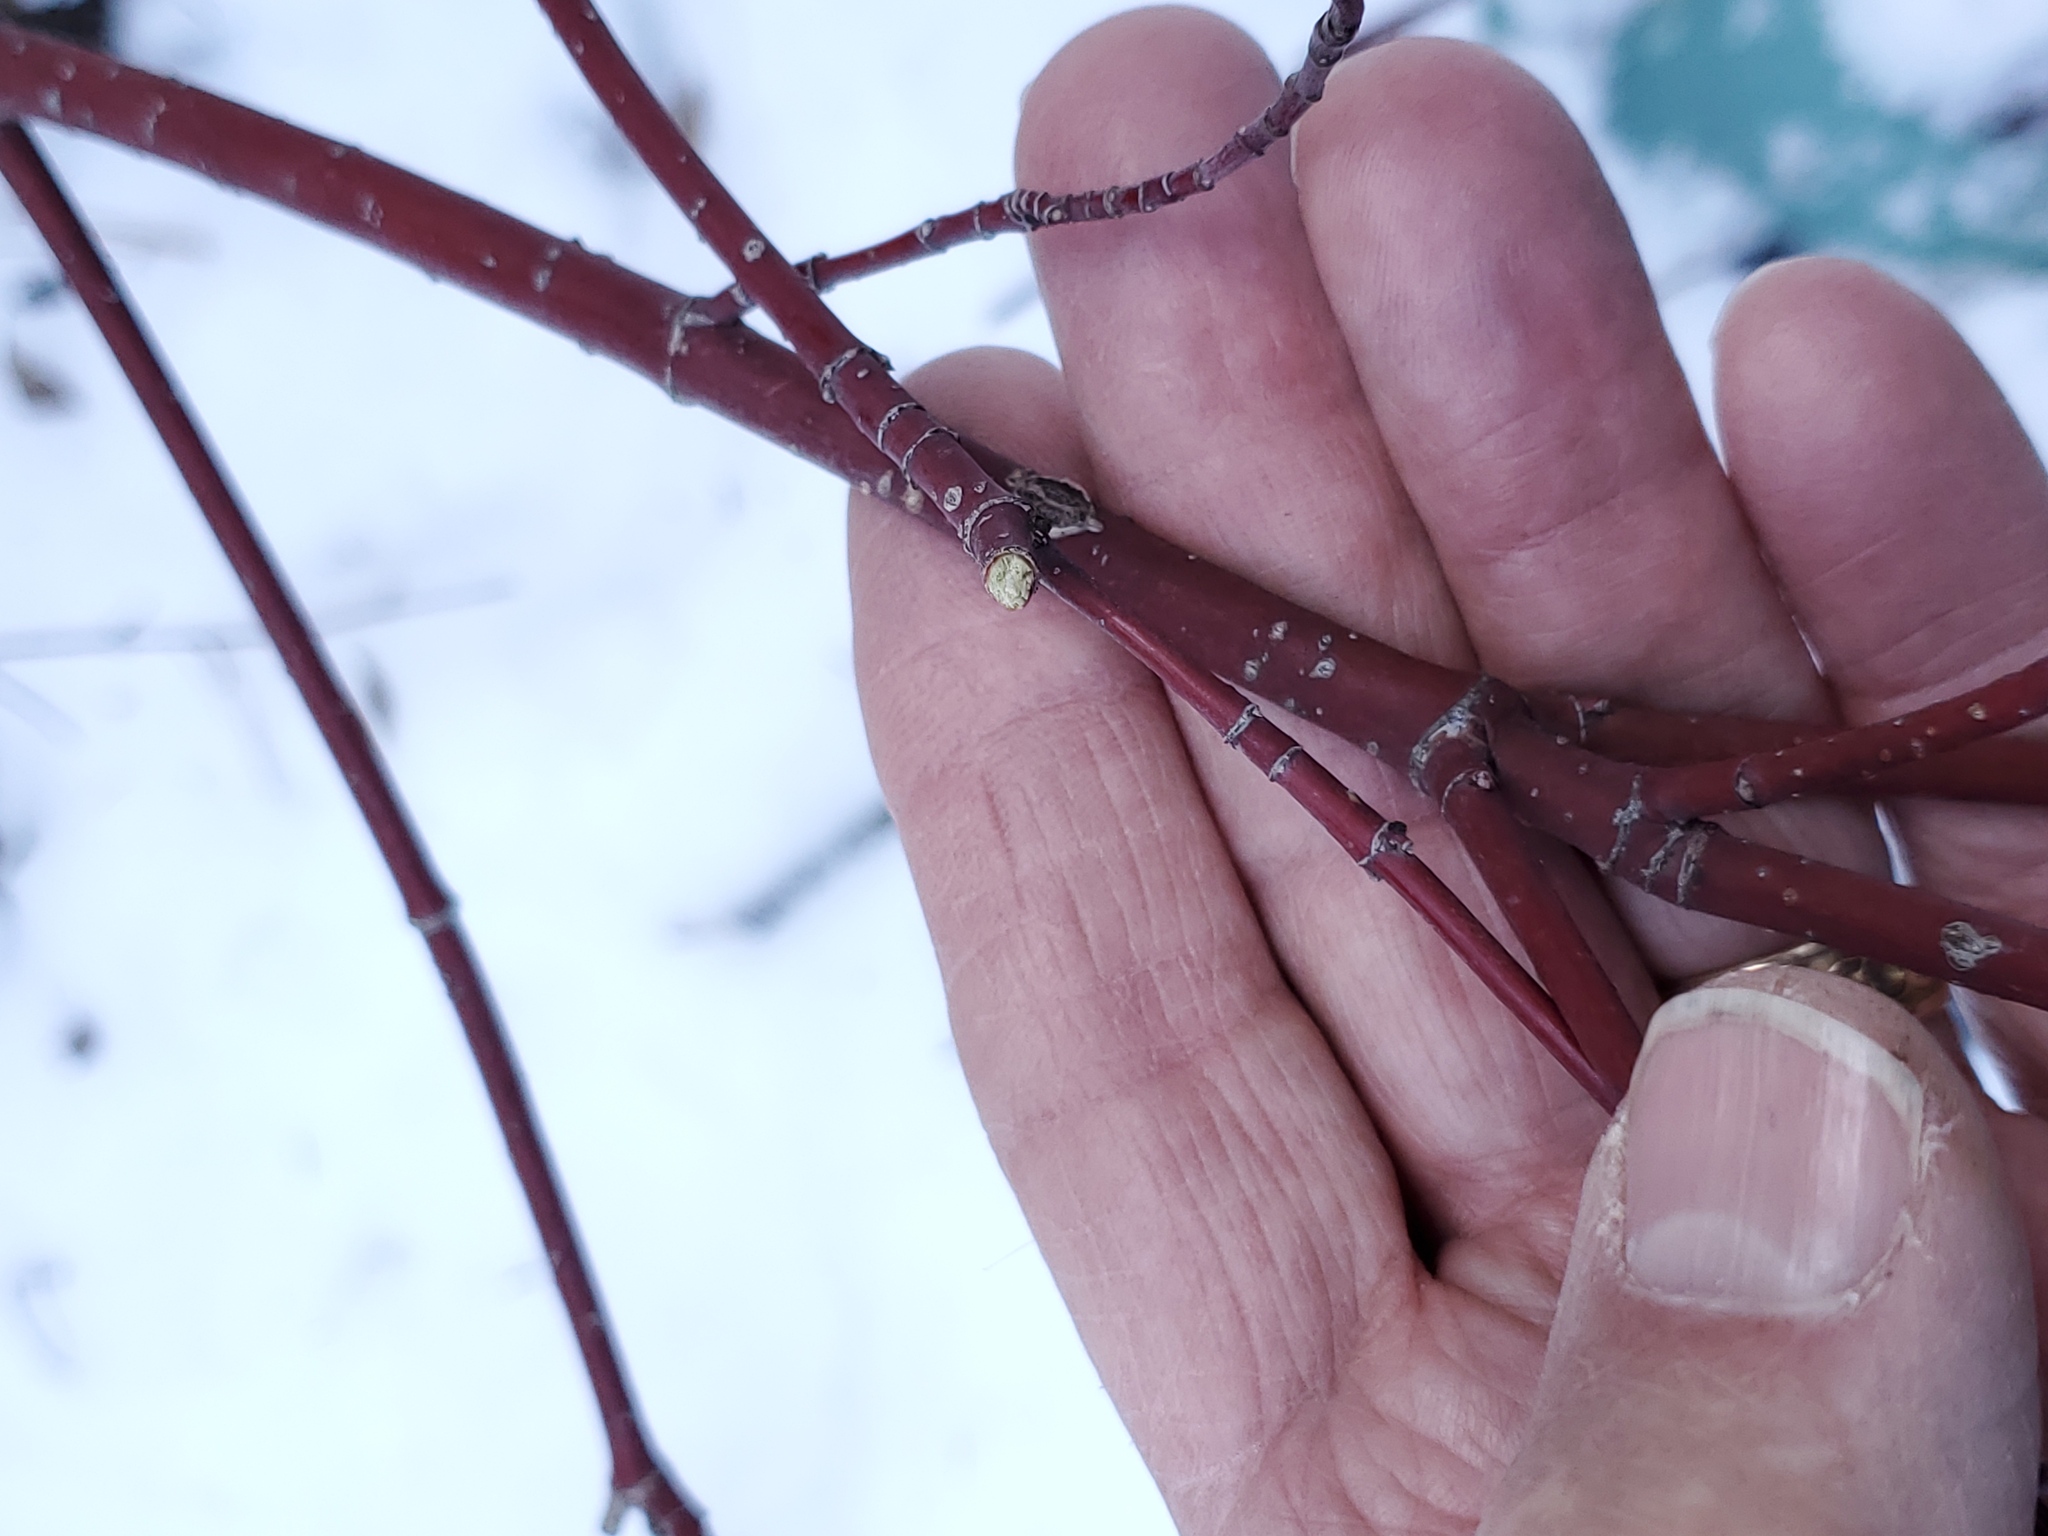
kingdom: Plantae
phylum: Tracheophyta
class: Magnoliopsida
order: Cornales
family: Cornaceae
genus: Cornus
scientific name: Cornus sericea
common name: Red-osier dogwood
